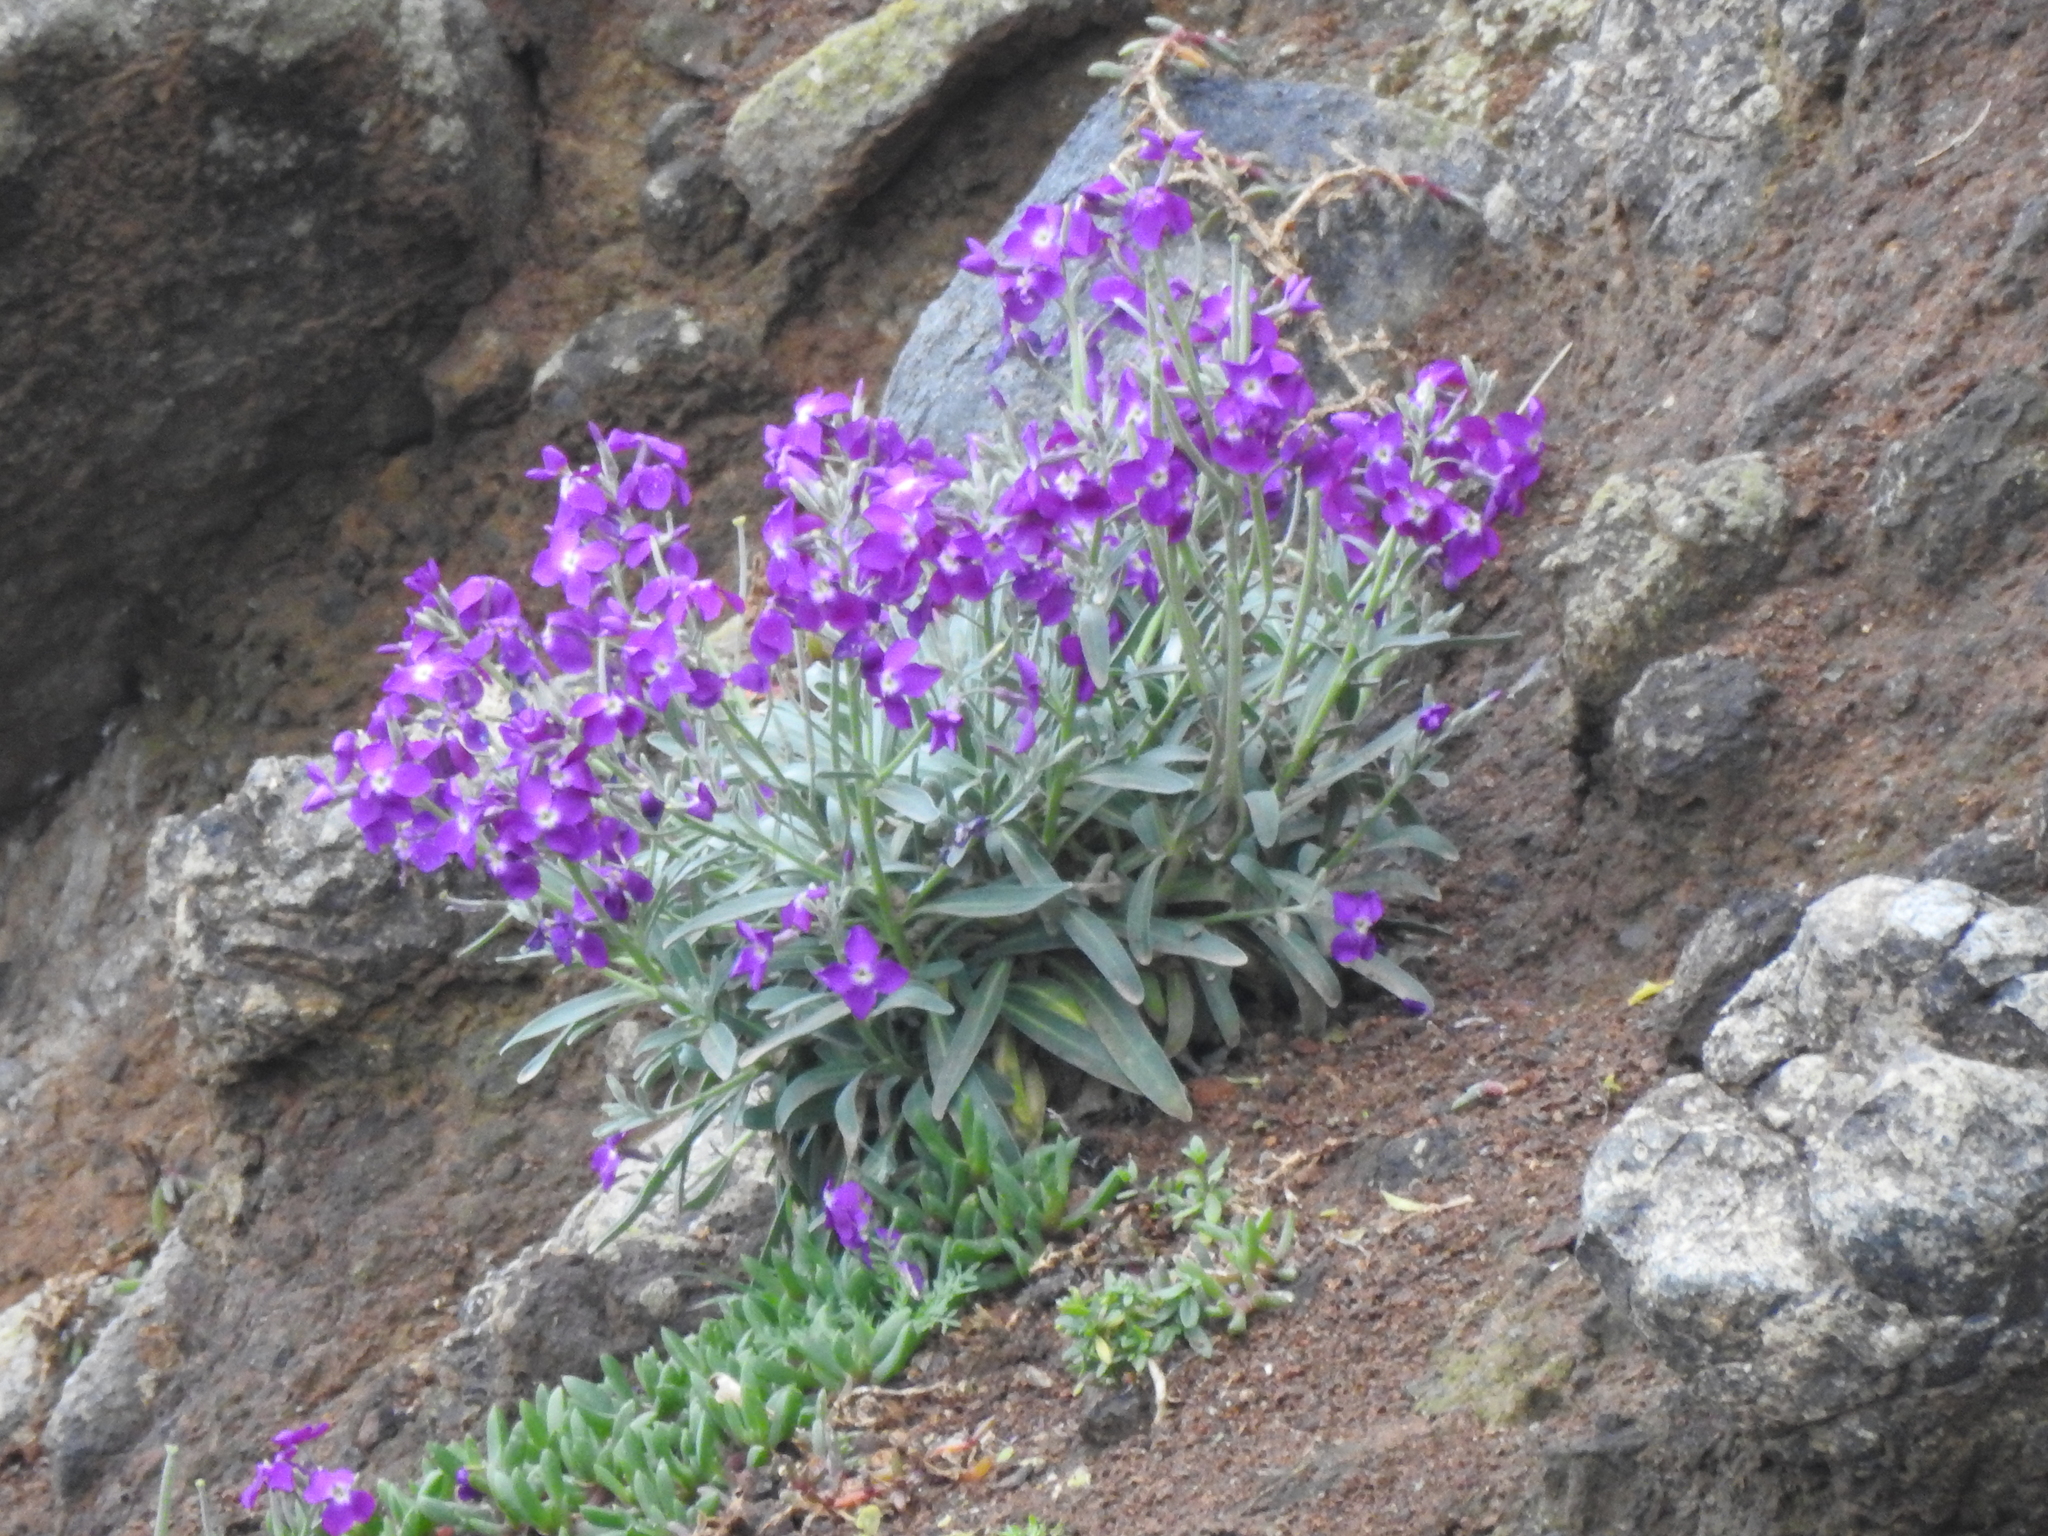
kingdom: Plantae
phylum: Tracheophyta
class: Magnoliopsida
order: Brassicales
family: Brassicaceae
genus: Matthiola
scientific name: Matthiola incana
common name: Hoary stock
